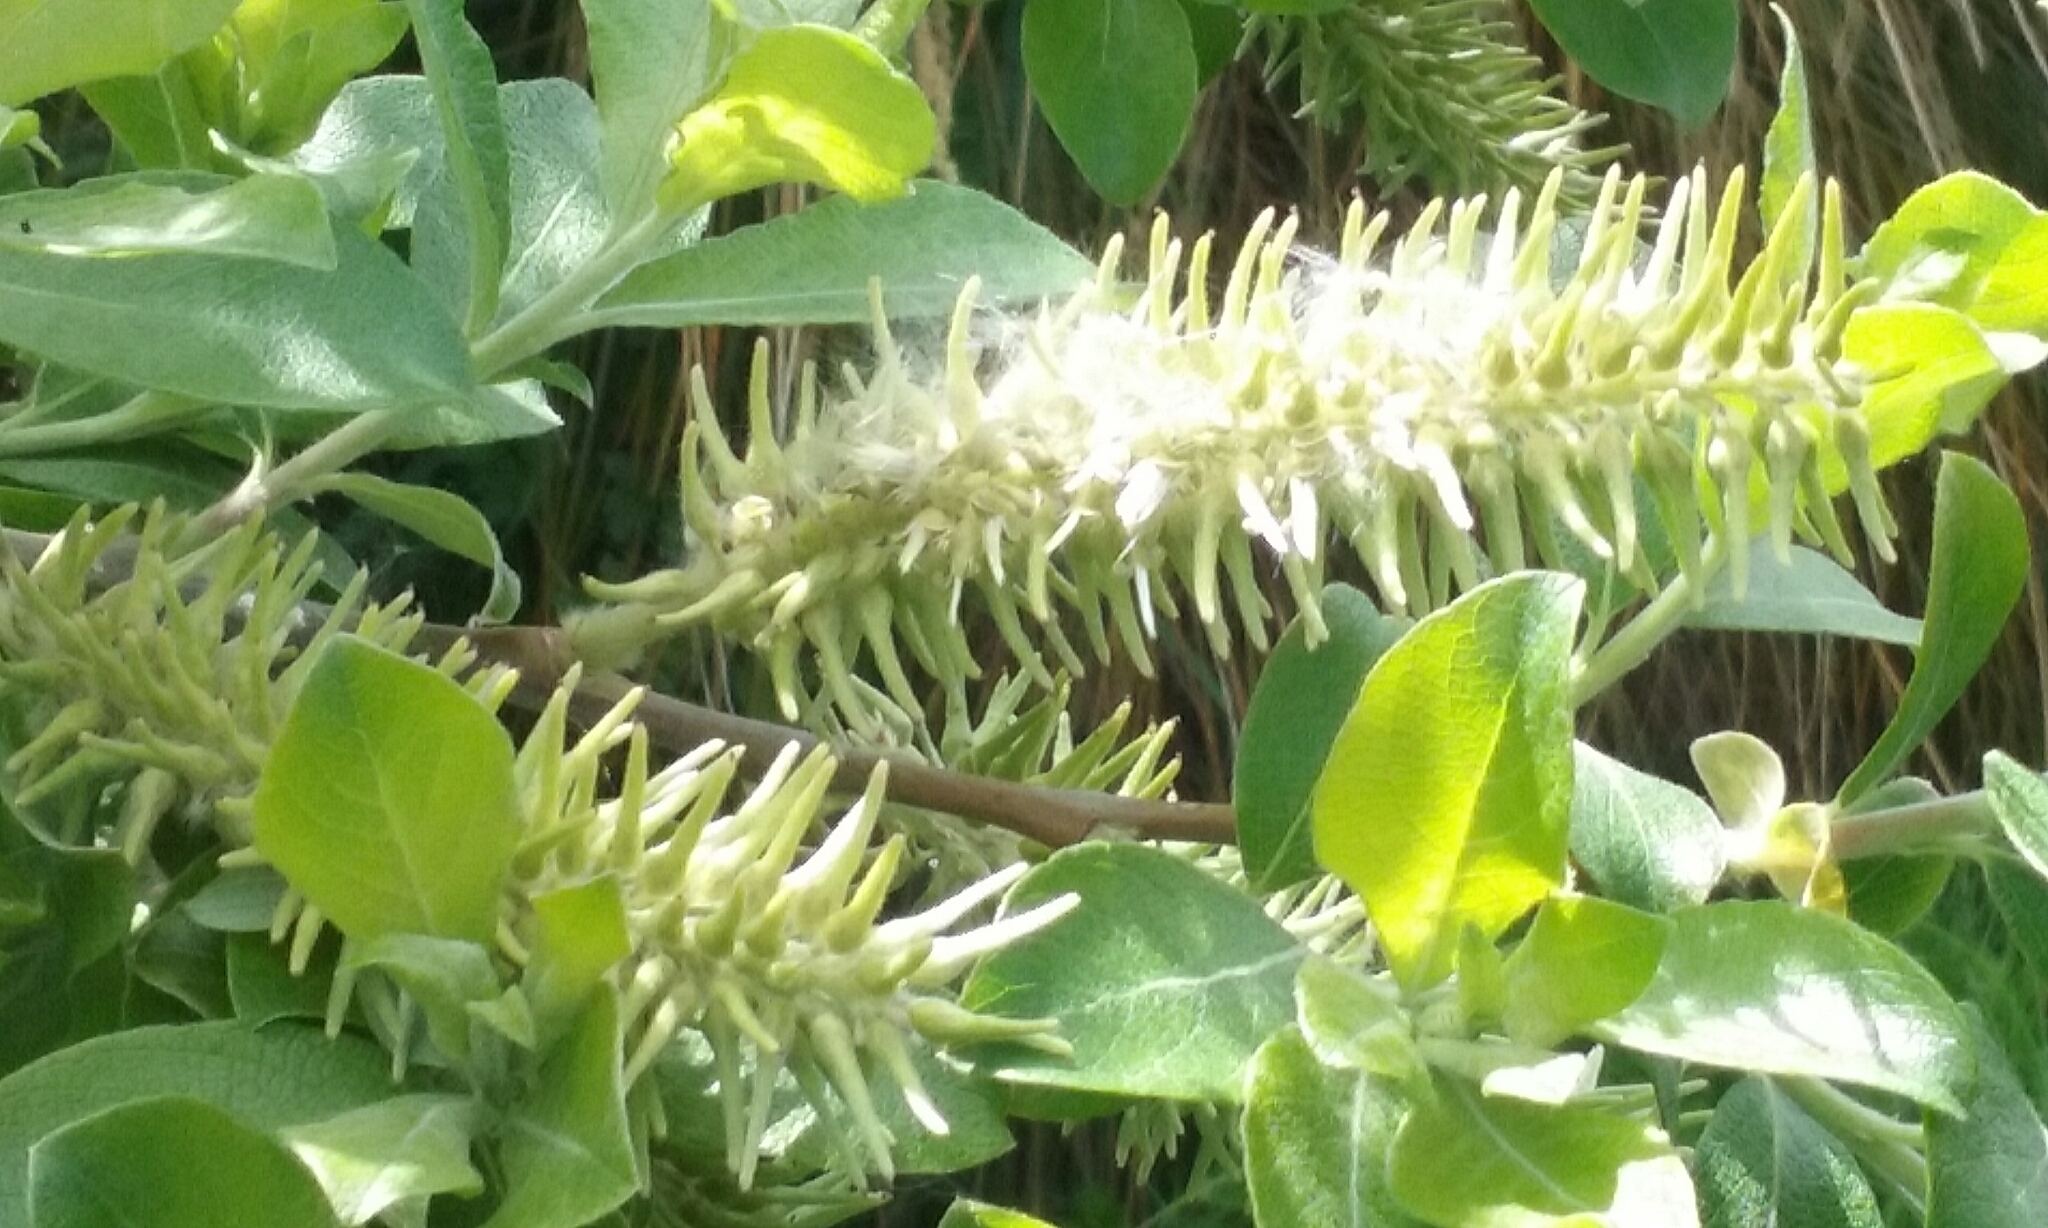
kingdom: Plantae
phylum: Tracheophyta
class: Magnoliopsida
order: Malpighiales
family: Salicaceae
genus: Salix
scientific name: Salix cinerea
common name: Common sallow
